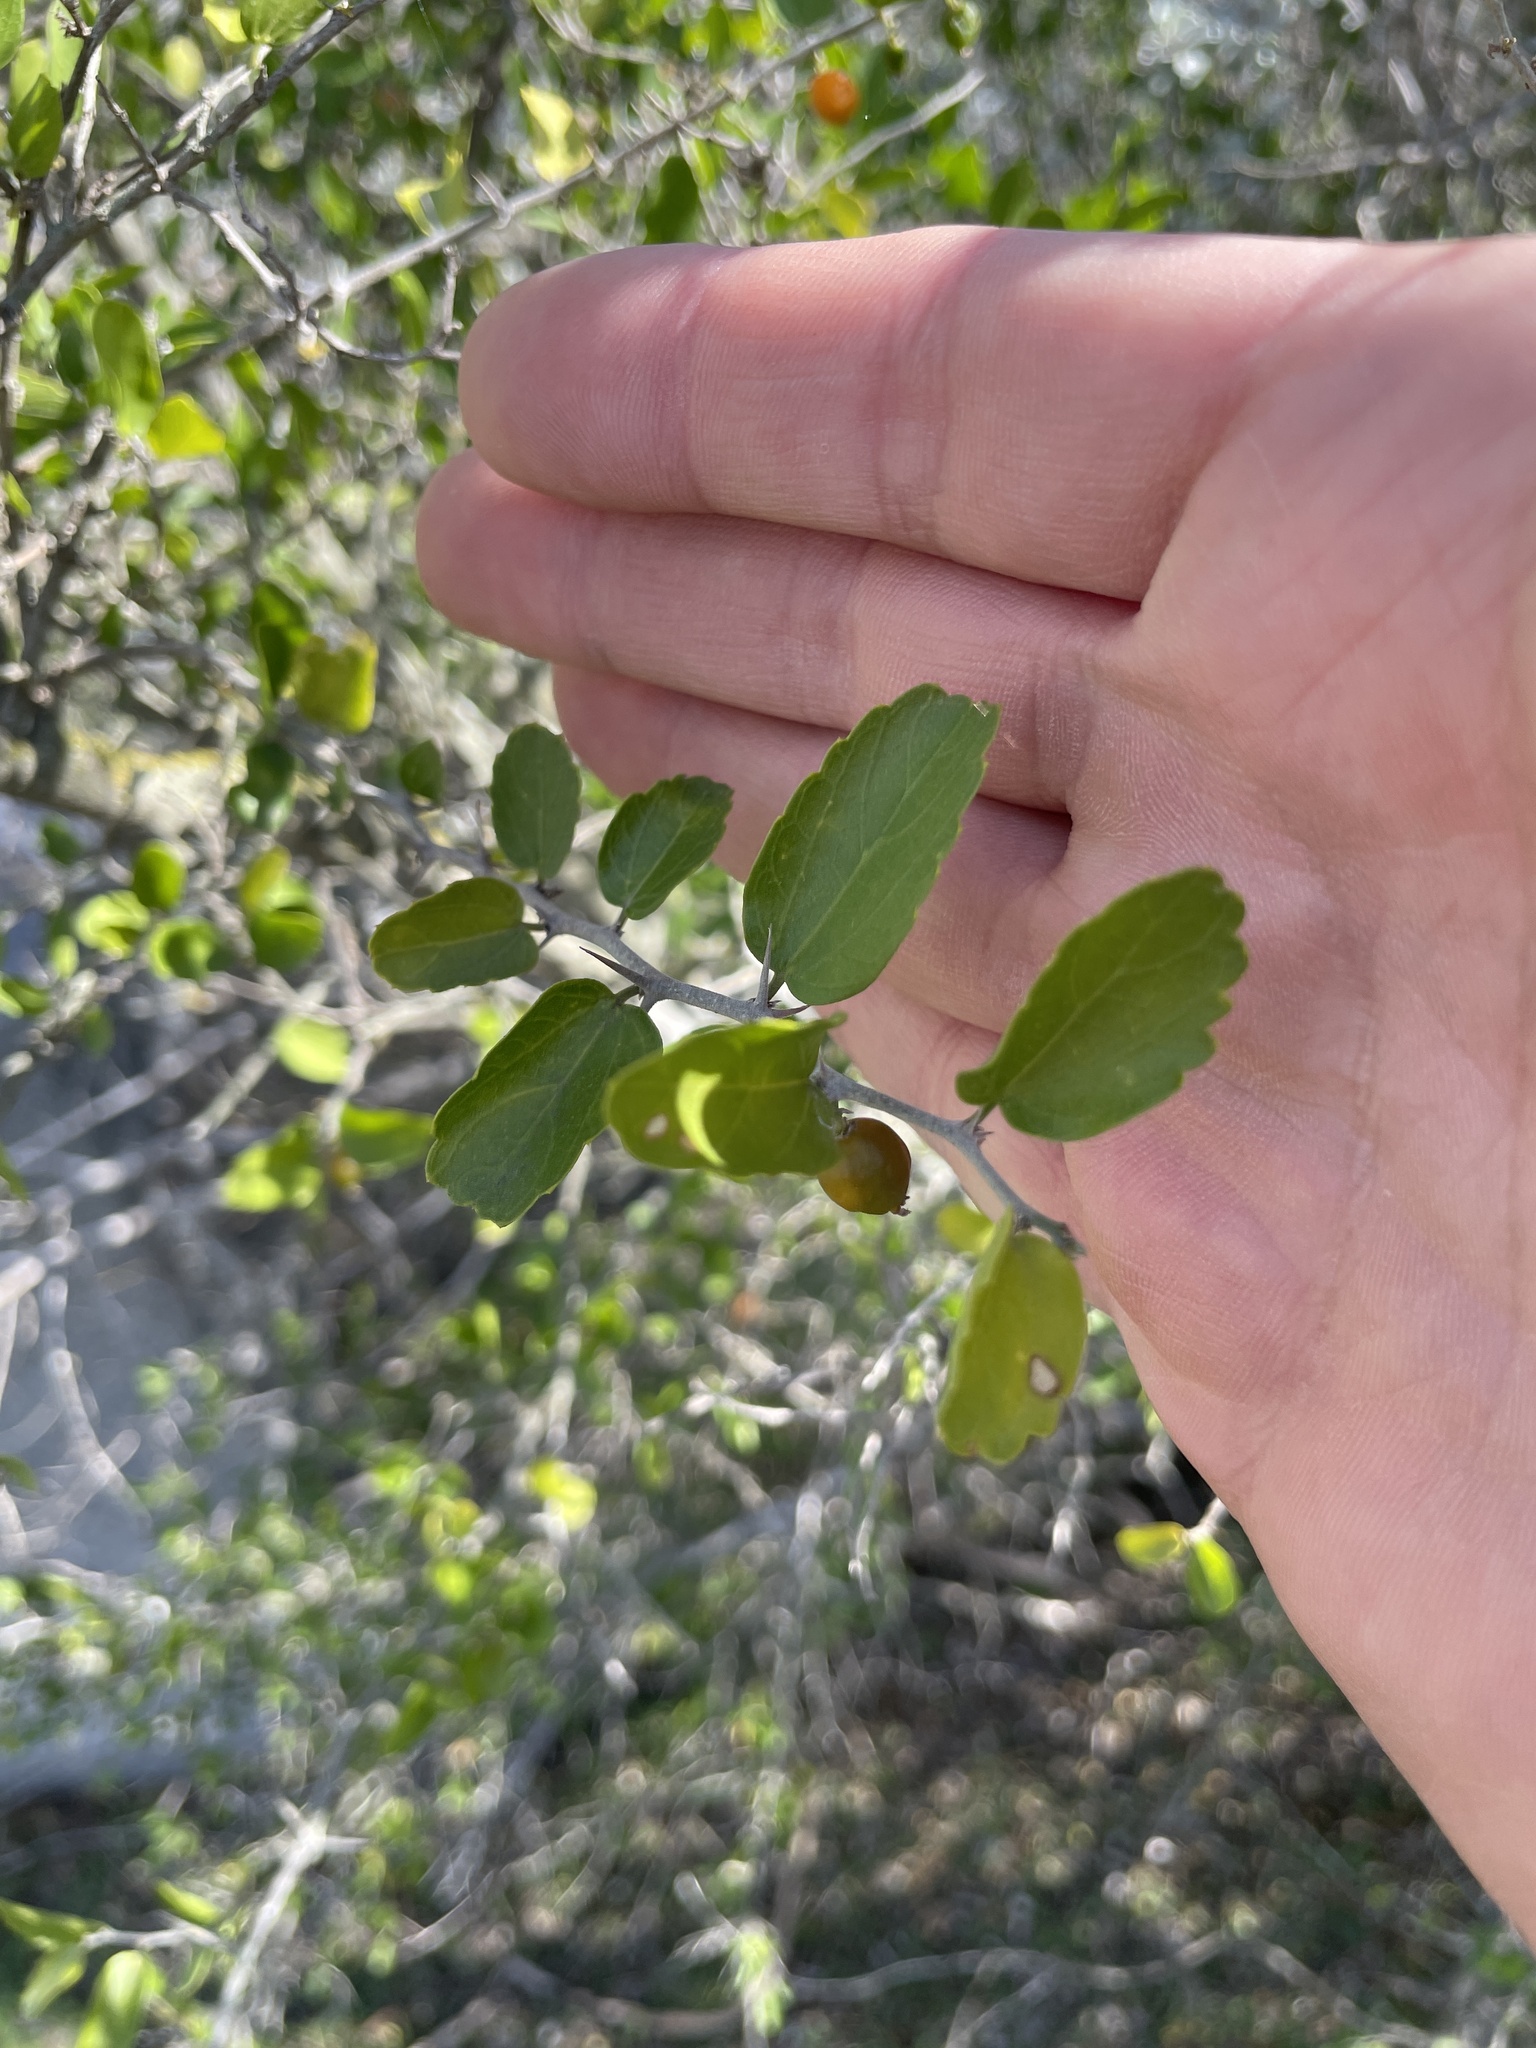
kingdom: Plantae
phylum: Tracheophyta
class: Magnoliopsida
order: Rosales
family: Cannabaceae
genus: Celtis
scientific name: Celtis pallida
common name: Desert hackberry
